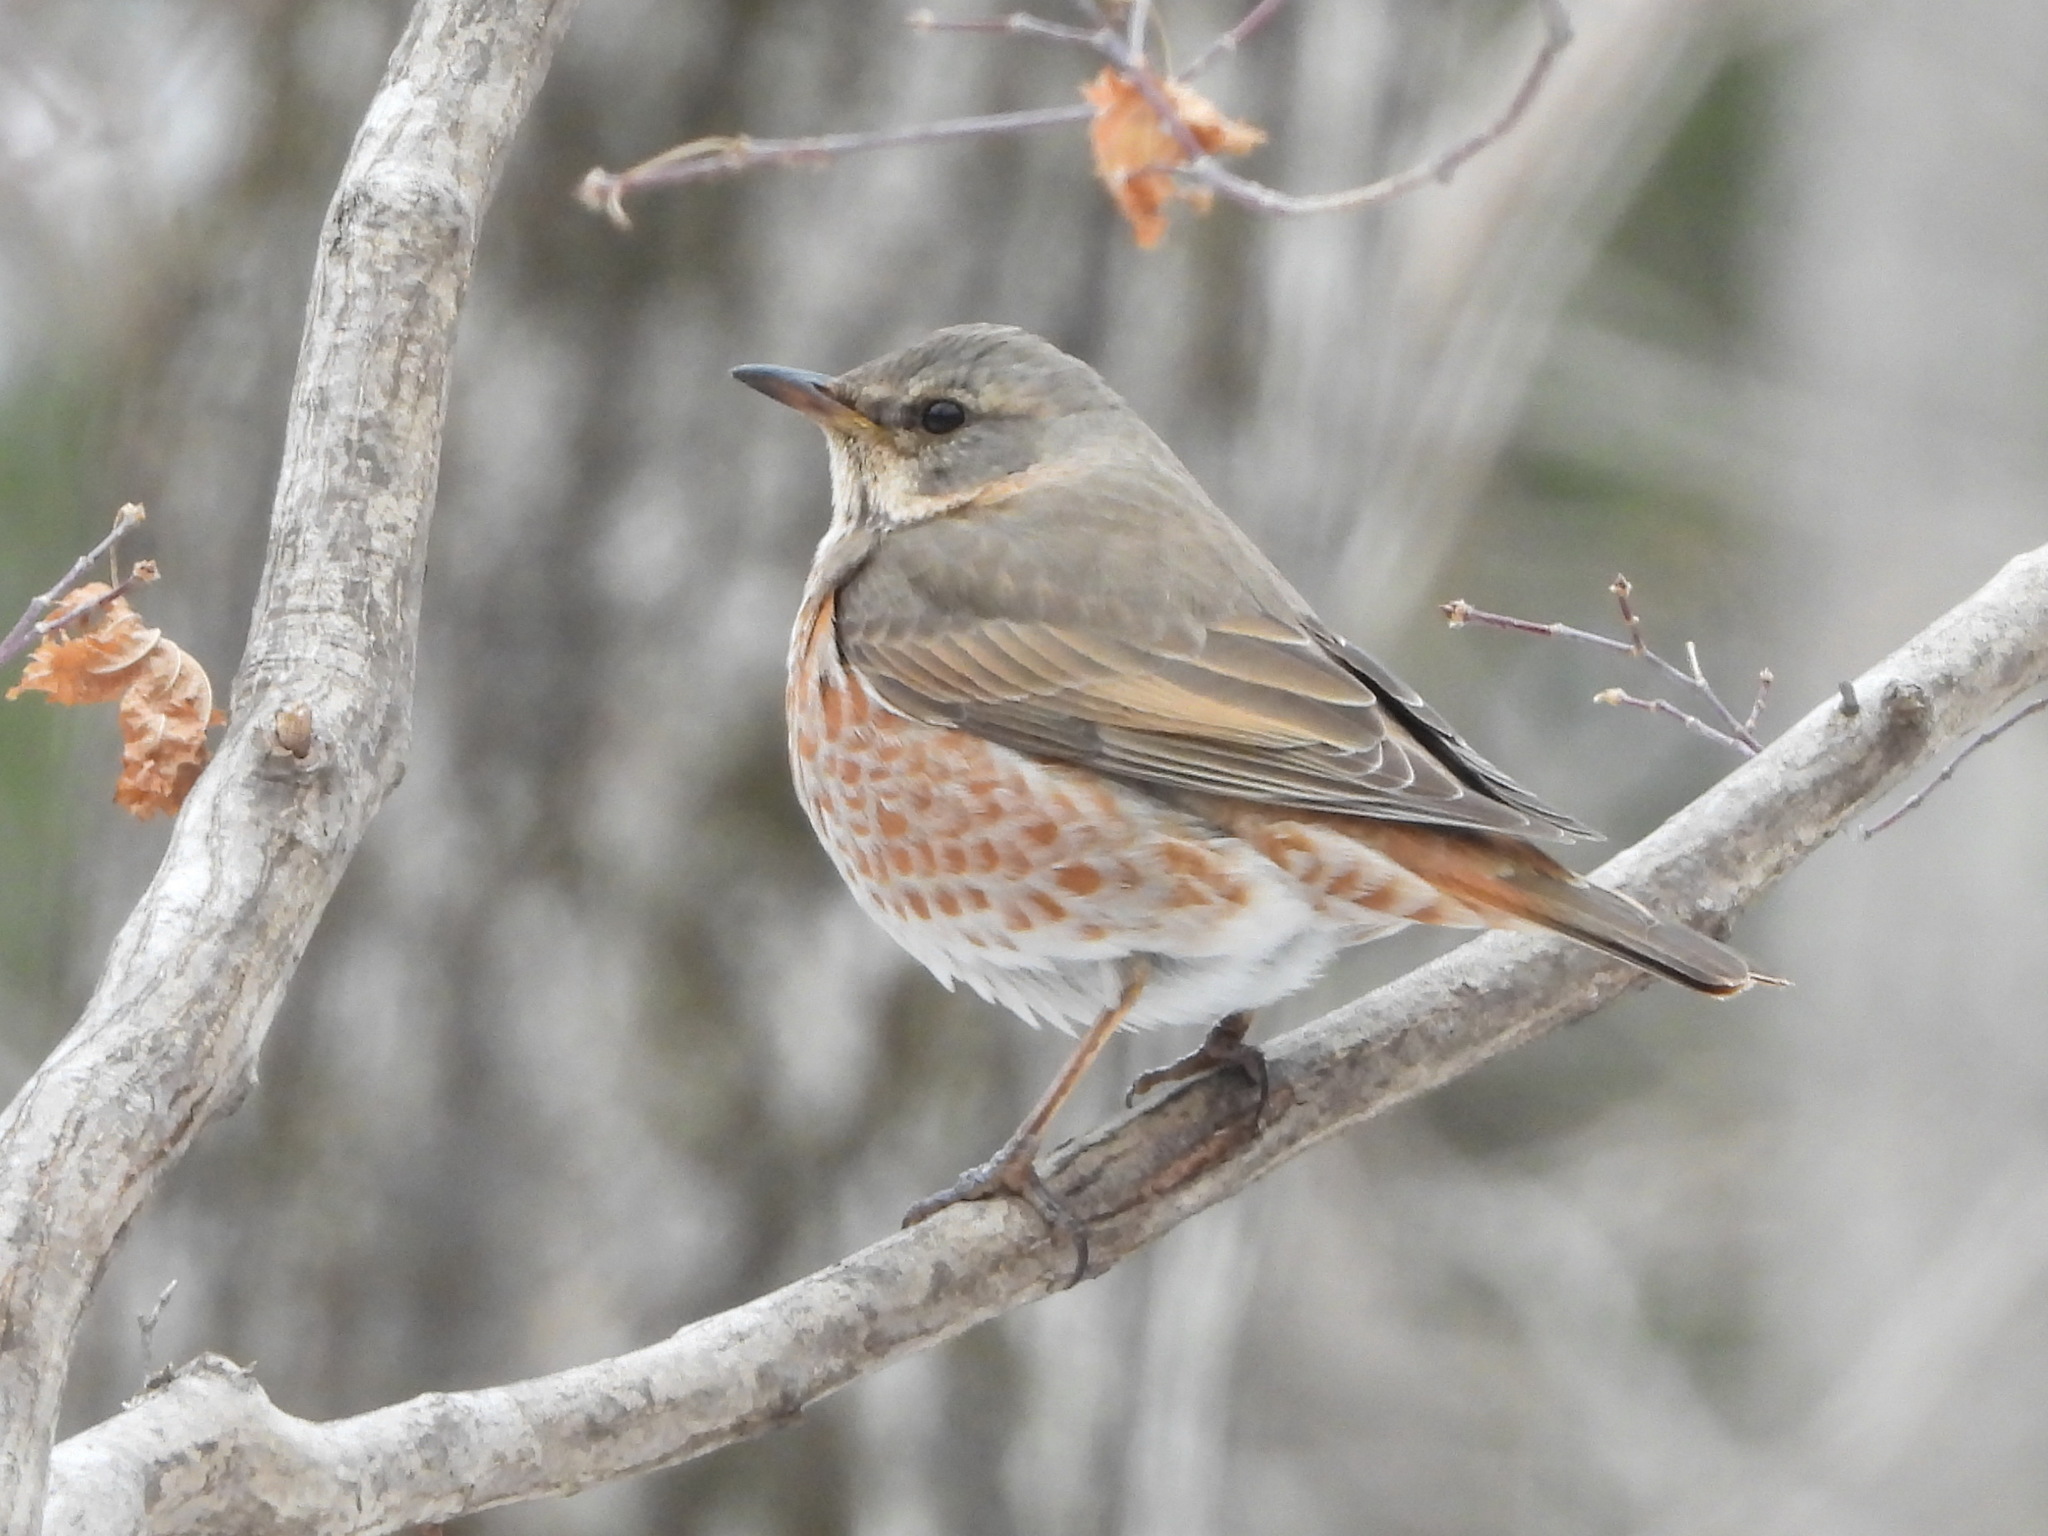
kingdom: Animalia
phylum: Chordata
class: Aves
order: Passeriformes
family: Turdidae
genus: Turdus
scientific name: Turdus naumanni
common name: Naumann's thrush
